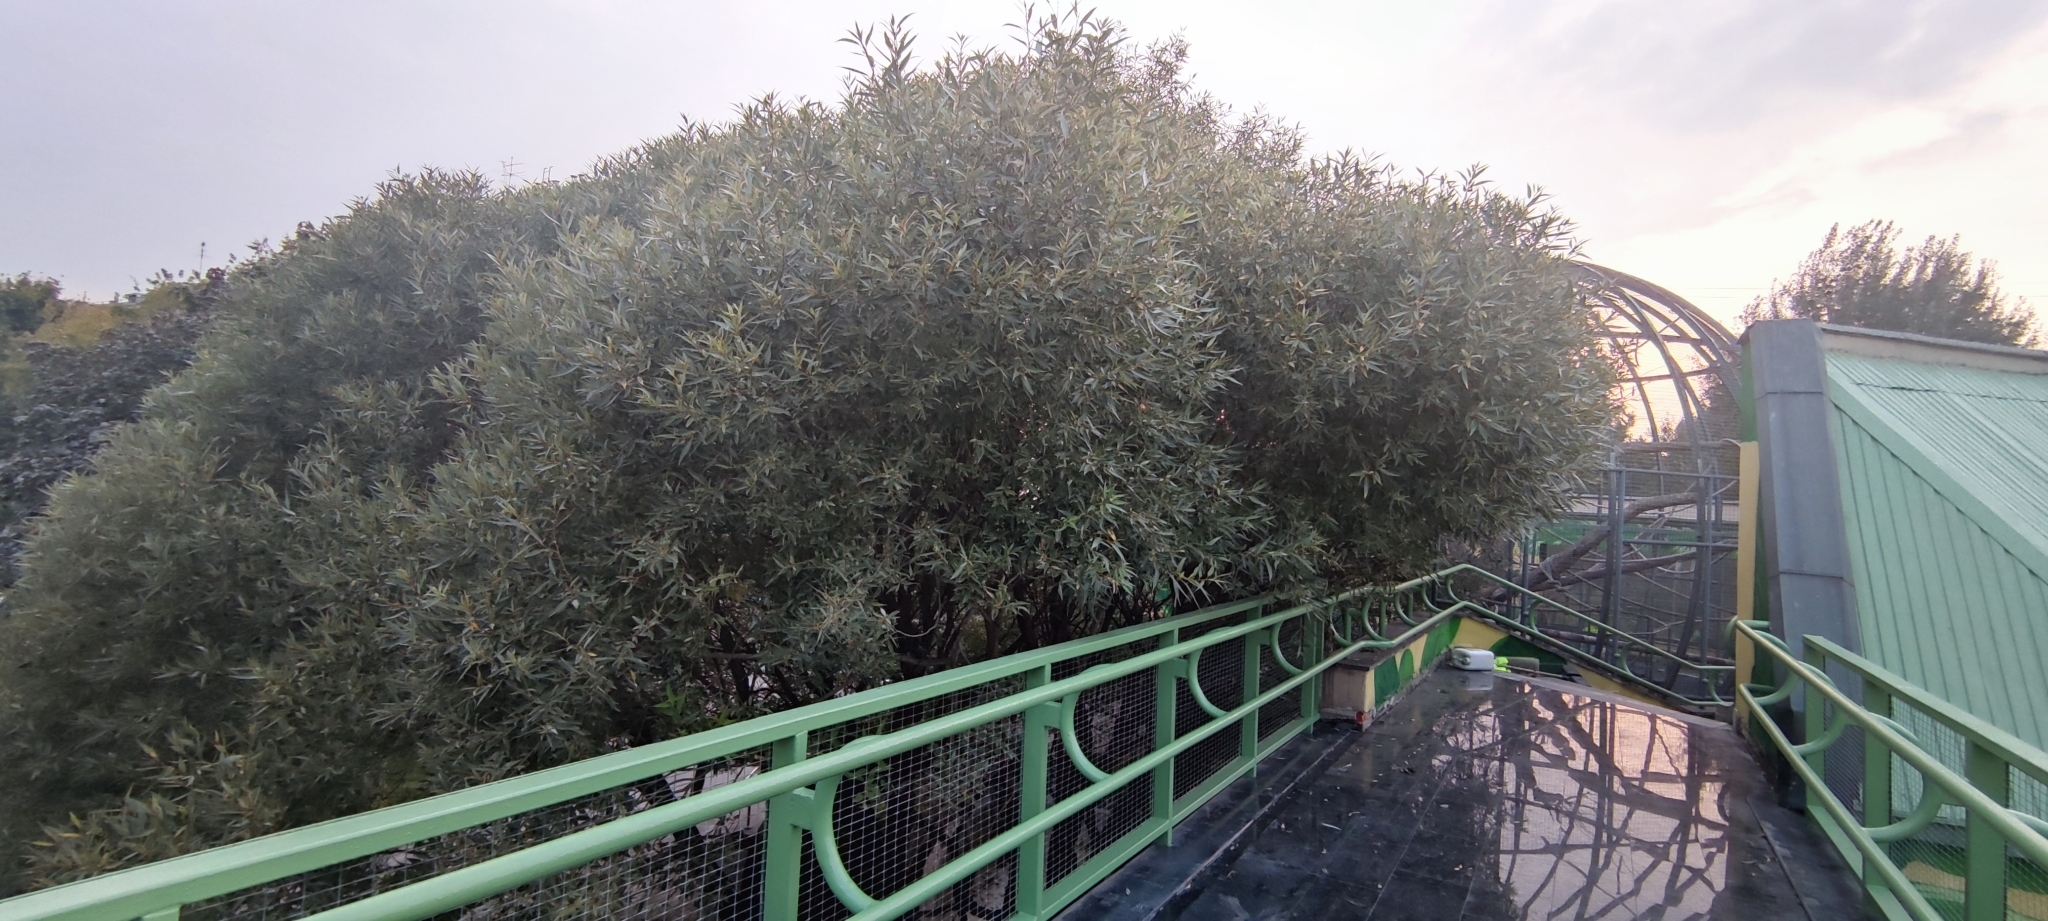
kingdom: Plantae
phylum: Tracheophyta
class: Magnoliopsida
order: Malpighiales
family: Salicaceae
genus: Salix
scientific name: Salix triandra
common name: Almond willow
